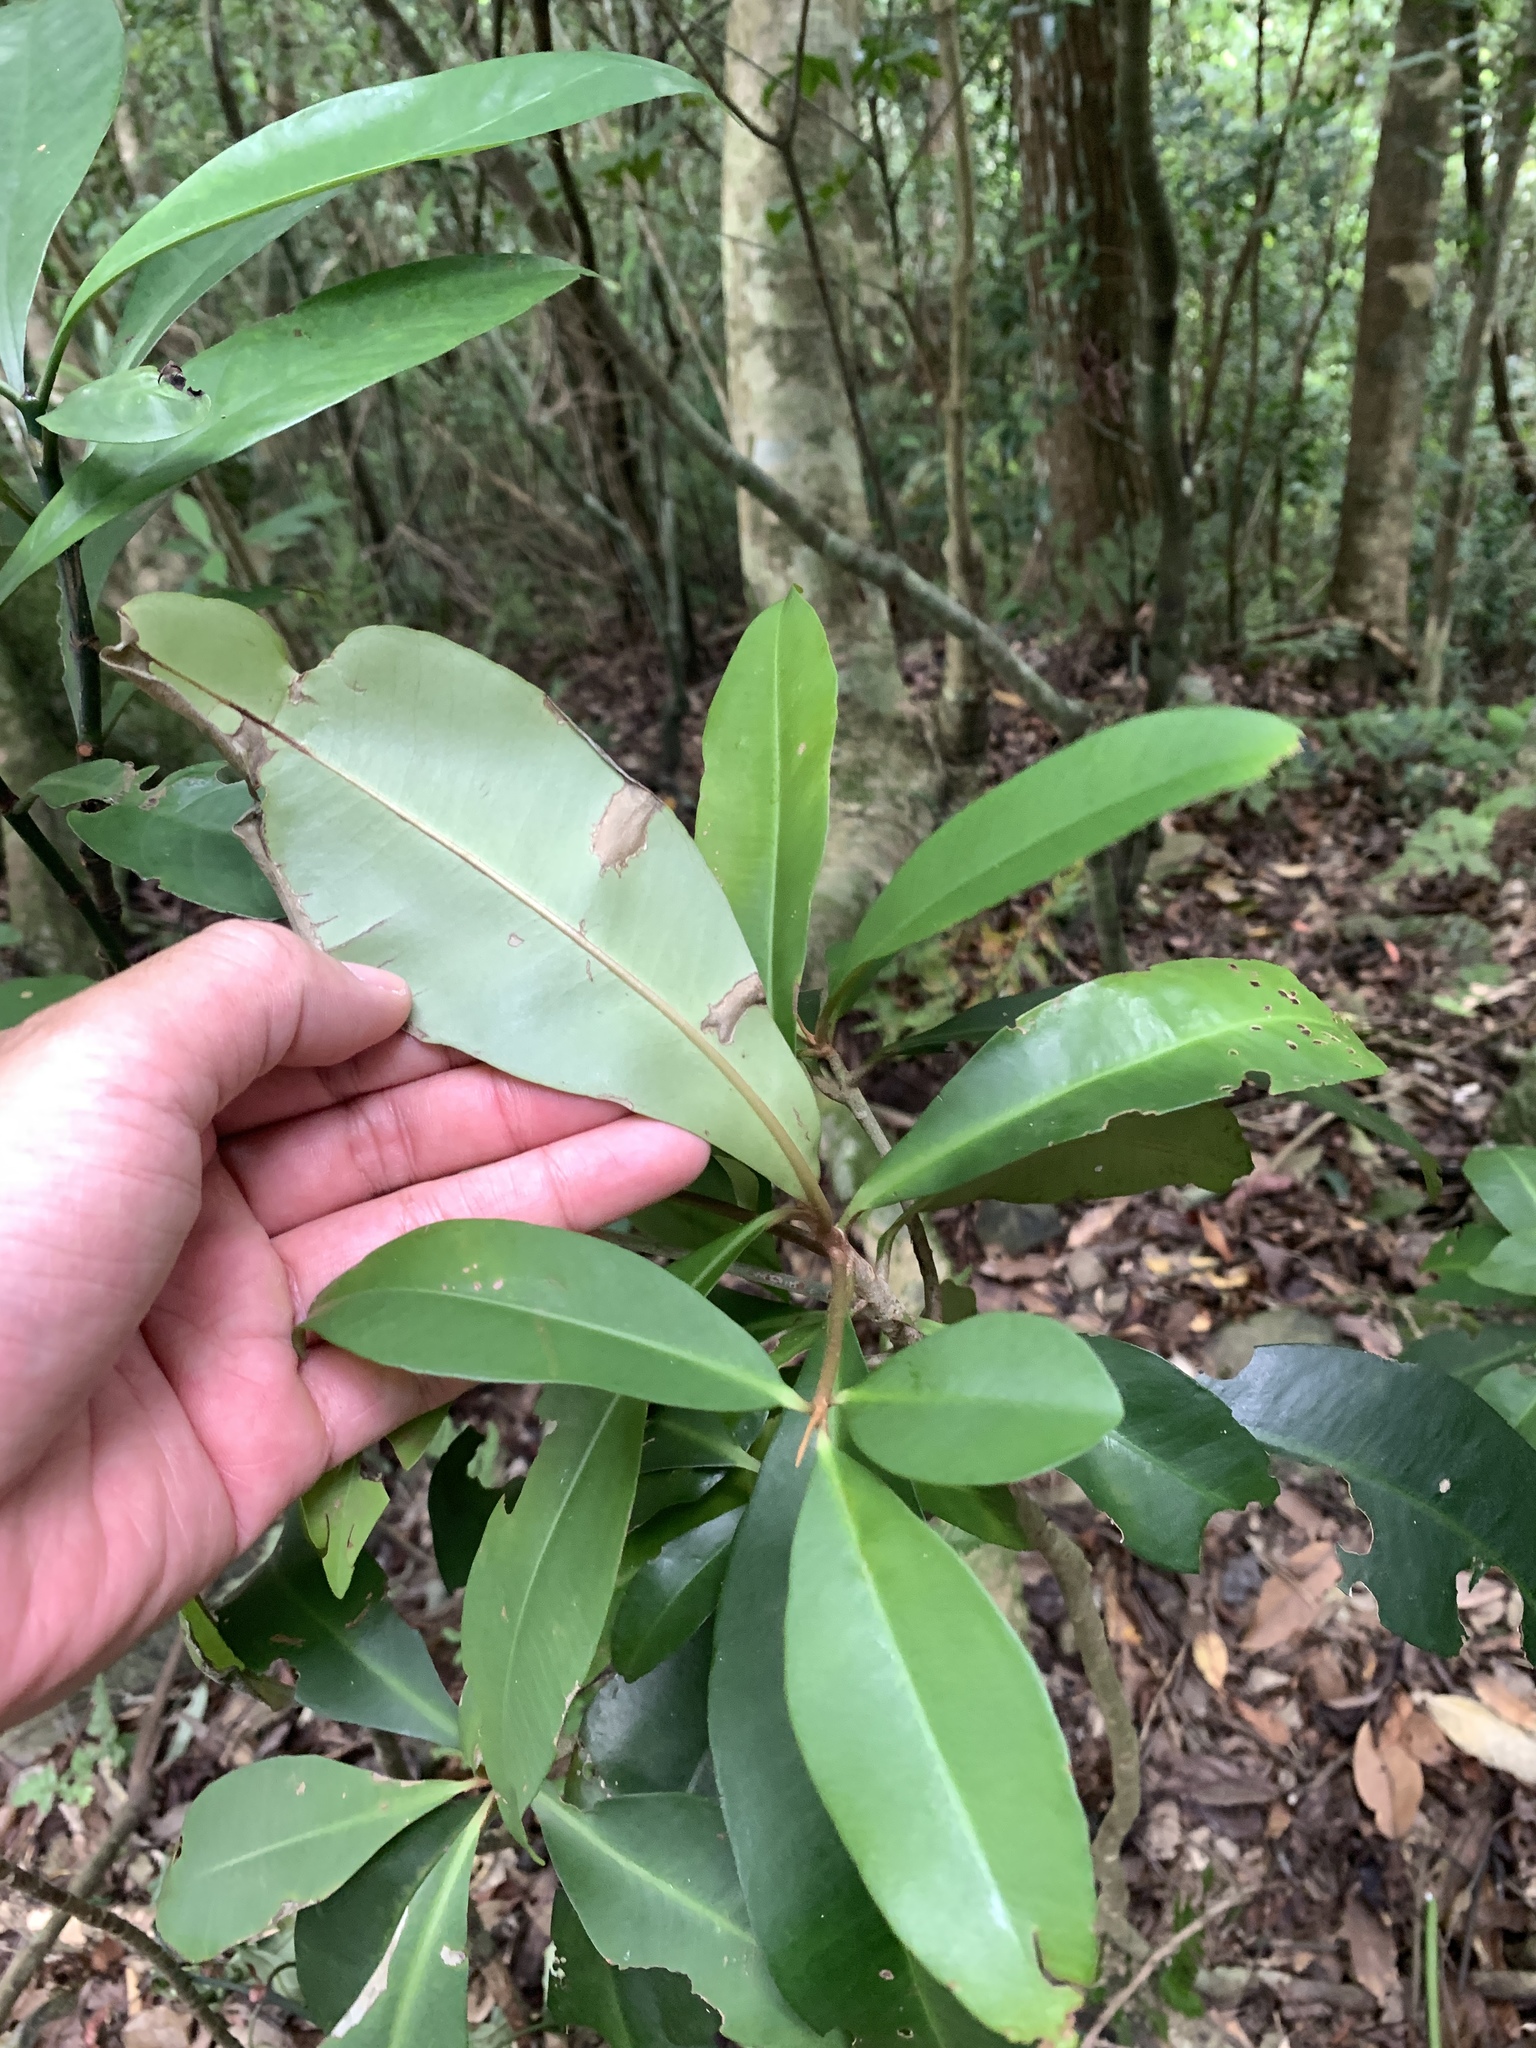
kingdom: Plantae
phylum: Tracheophyta
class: Magnoliopsida
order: Ericales
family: Primulaceae
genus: Ardisia
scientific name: Ardisia sieboldii
